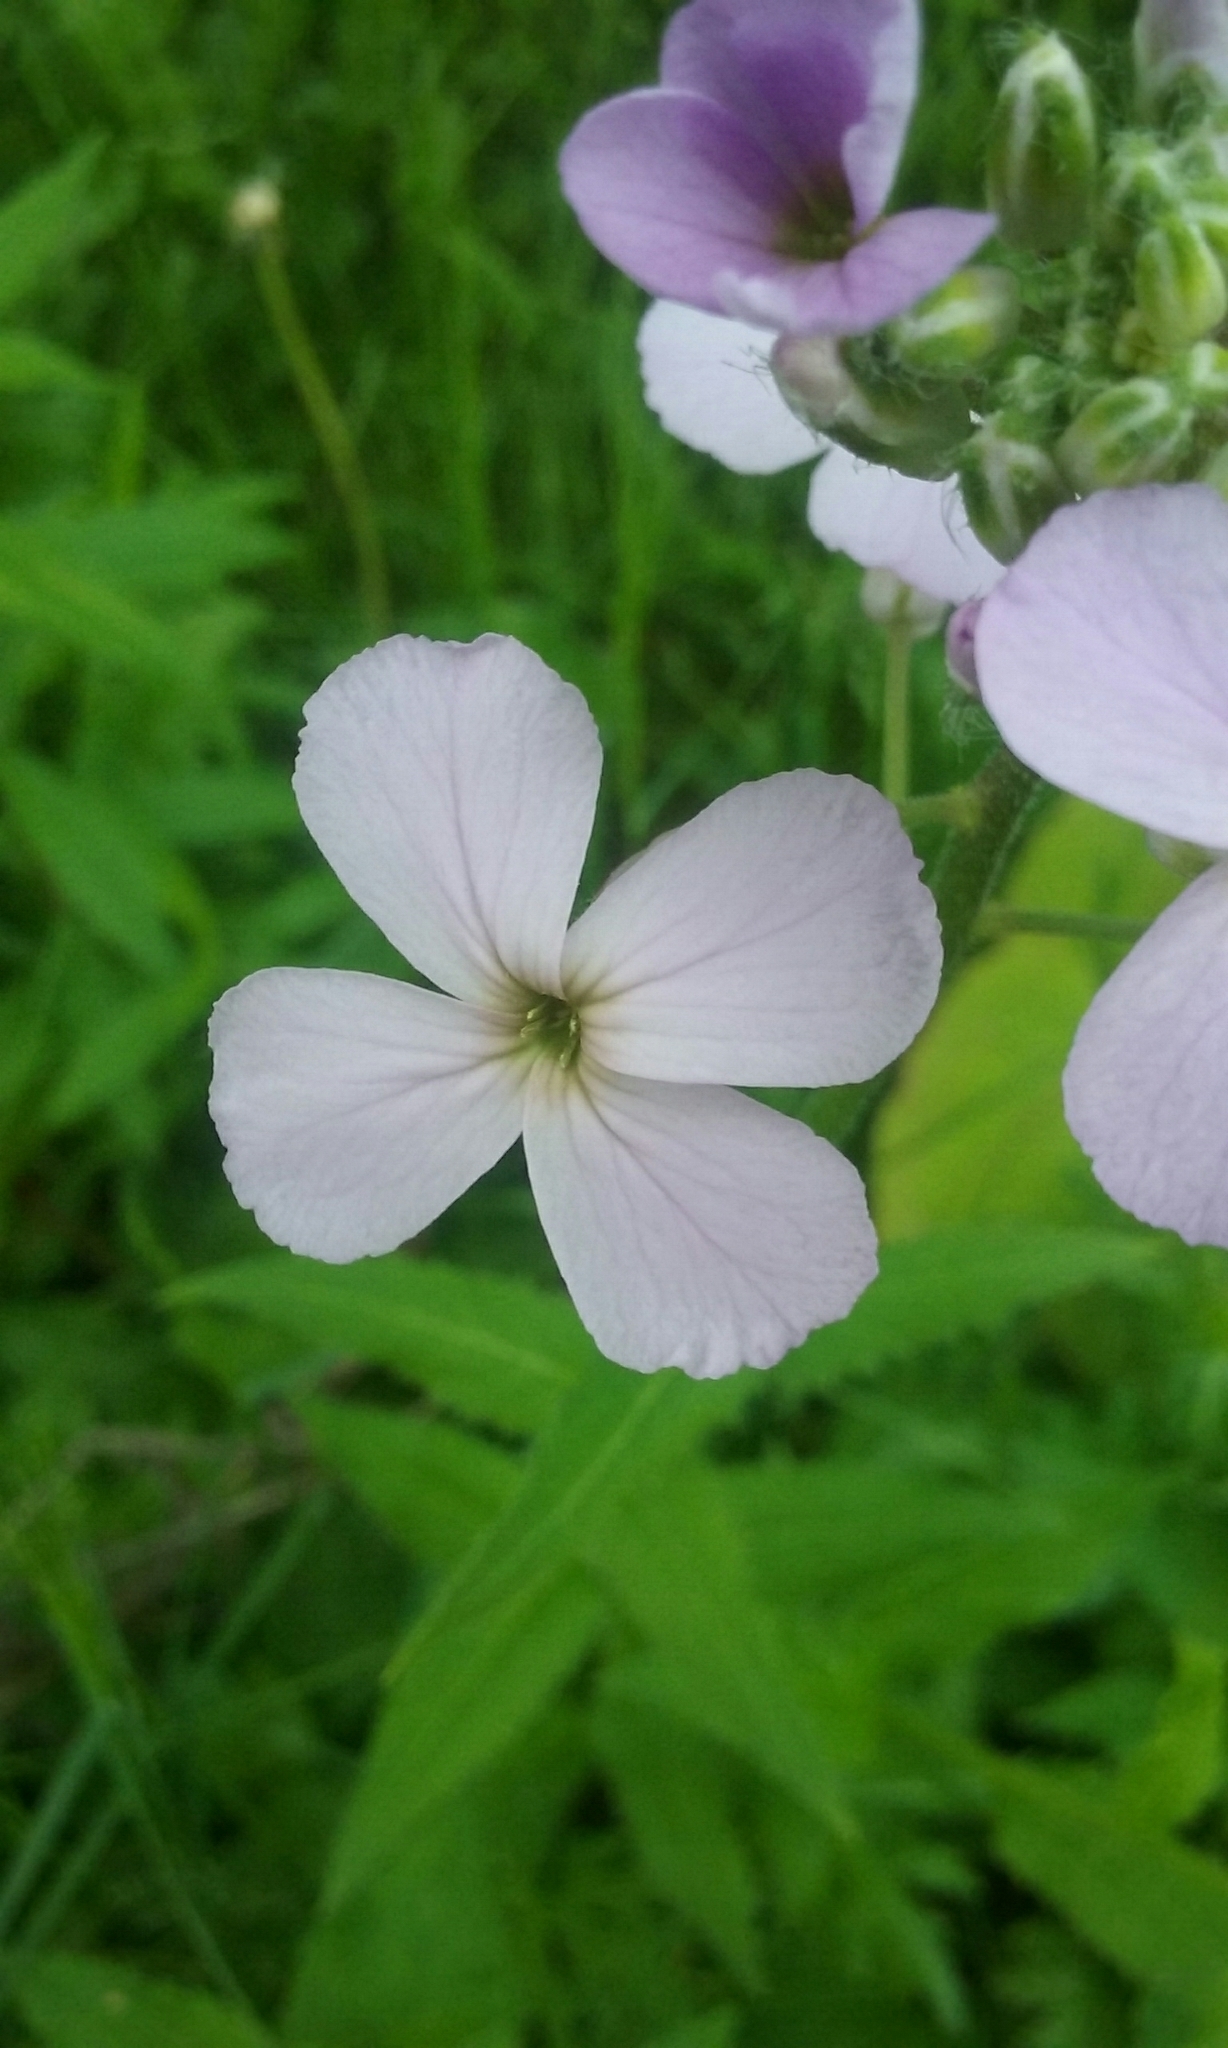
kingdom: Plantae
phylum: Tracheophyta
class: Magnoliopsida
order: Brassicales
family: Brassicaceae
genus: Hesperis
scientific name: Hesperis matronalis
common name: Dame's-violet
